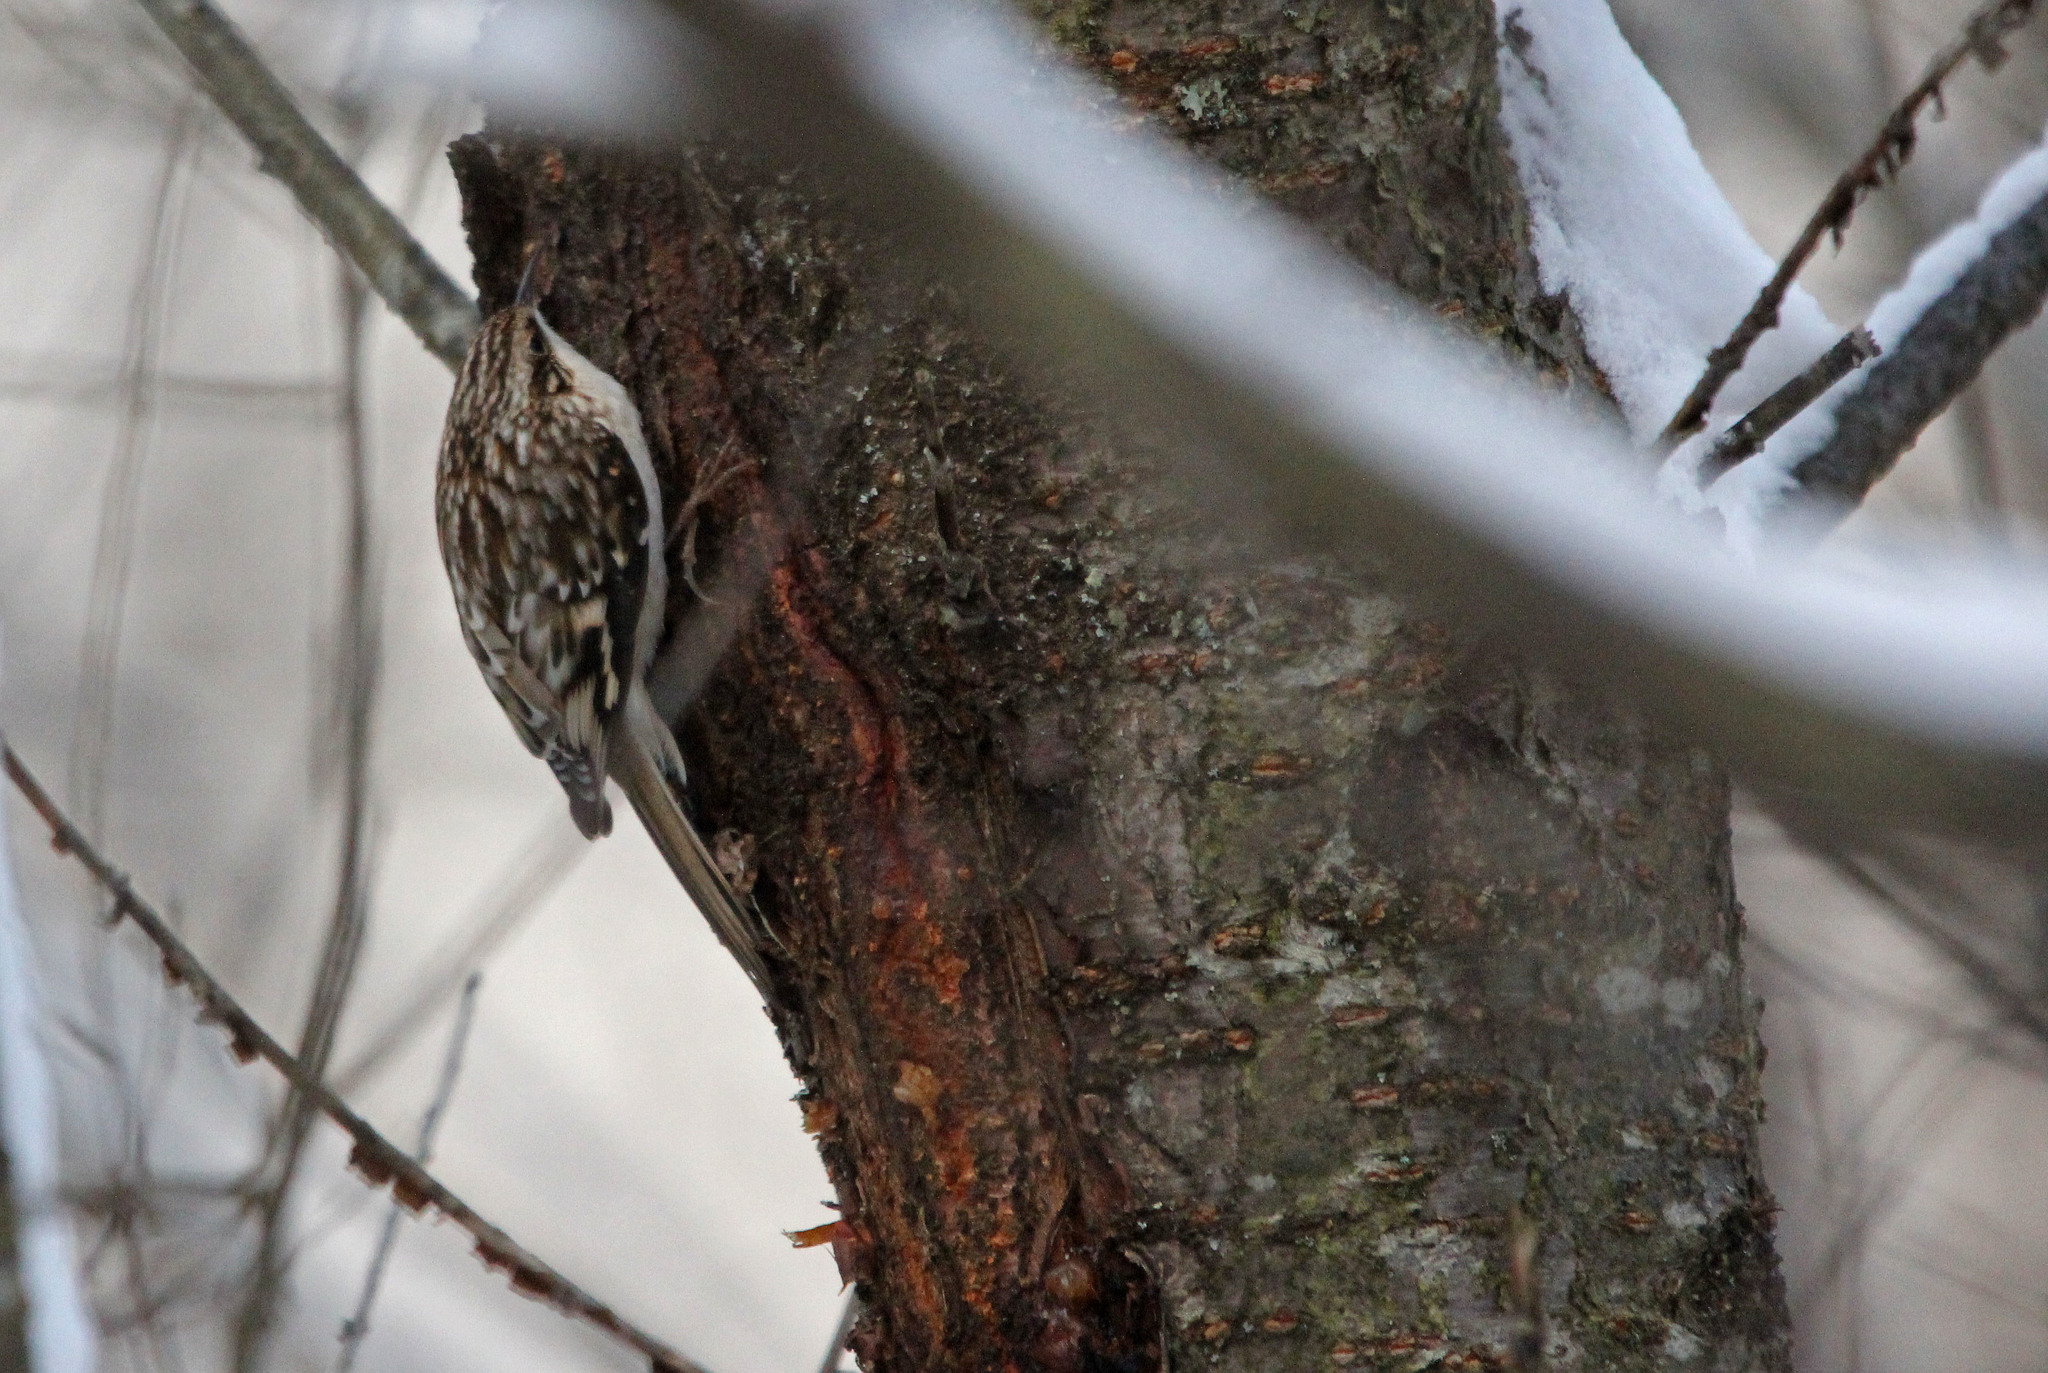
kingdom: Animalia
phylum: Chordata
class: Aves
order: Passeriformes
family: Certhiidae
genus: Certhia
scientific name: Certhia americana
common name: Brown creeper
